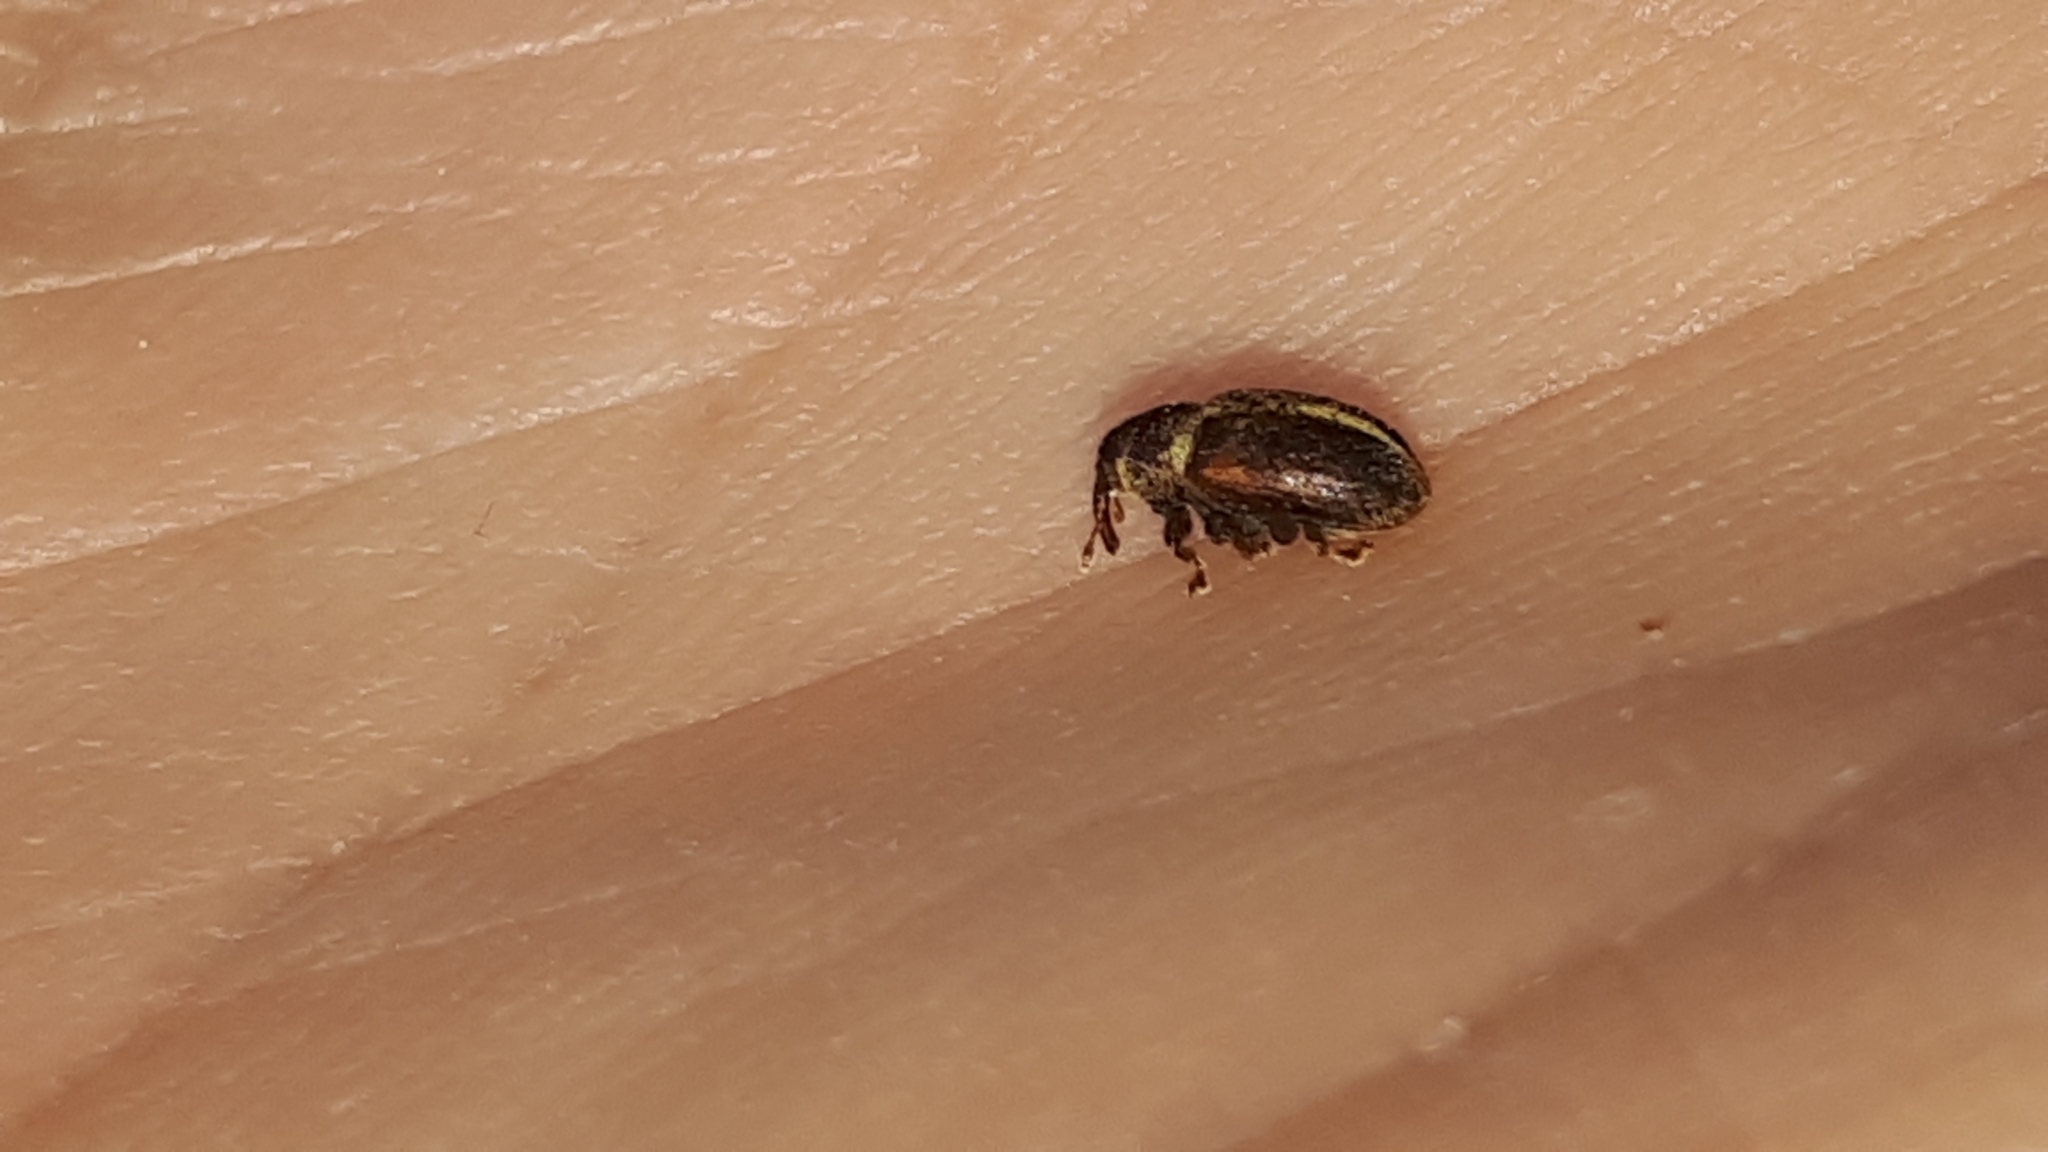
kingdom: Animalia
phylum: Arthropoda
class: Insecta
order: Coleoptera
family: Curculionidae
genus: Lignyodes
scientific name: Lignyodes enucleator
